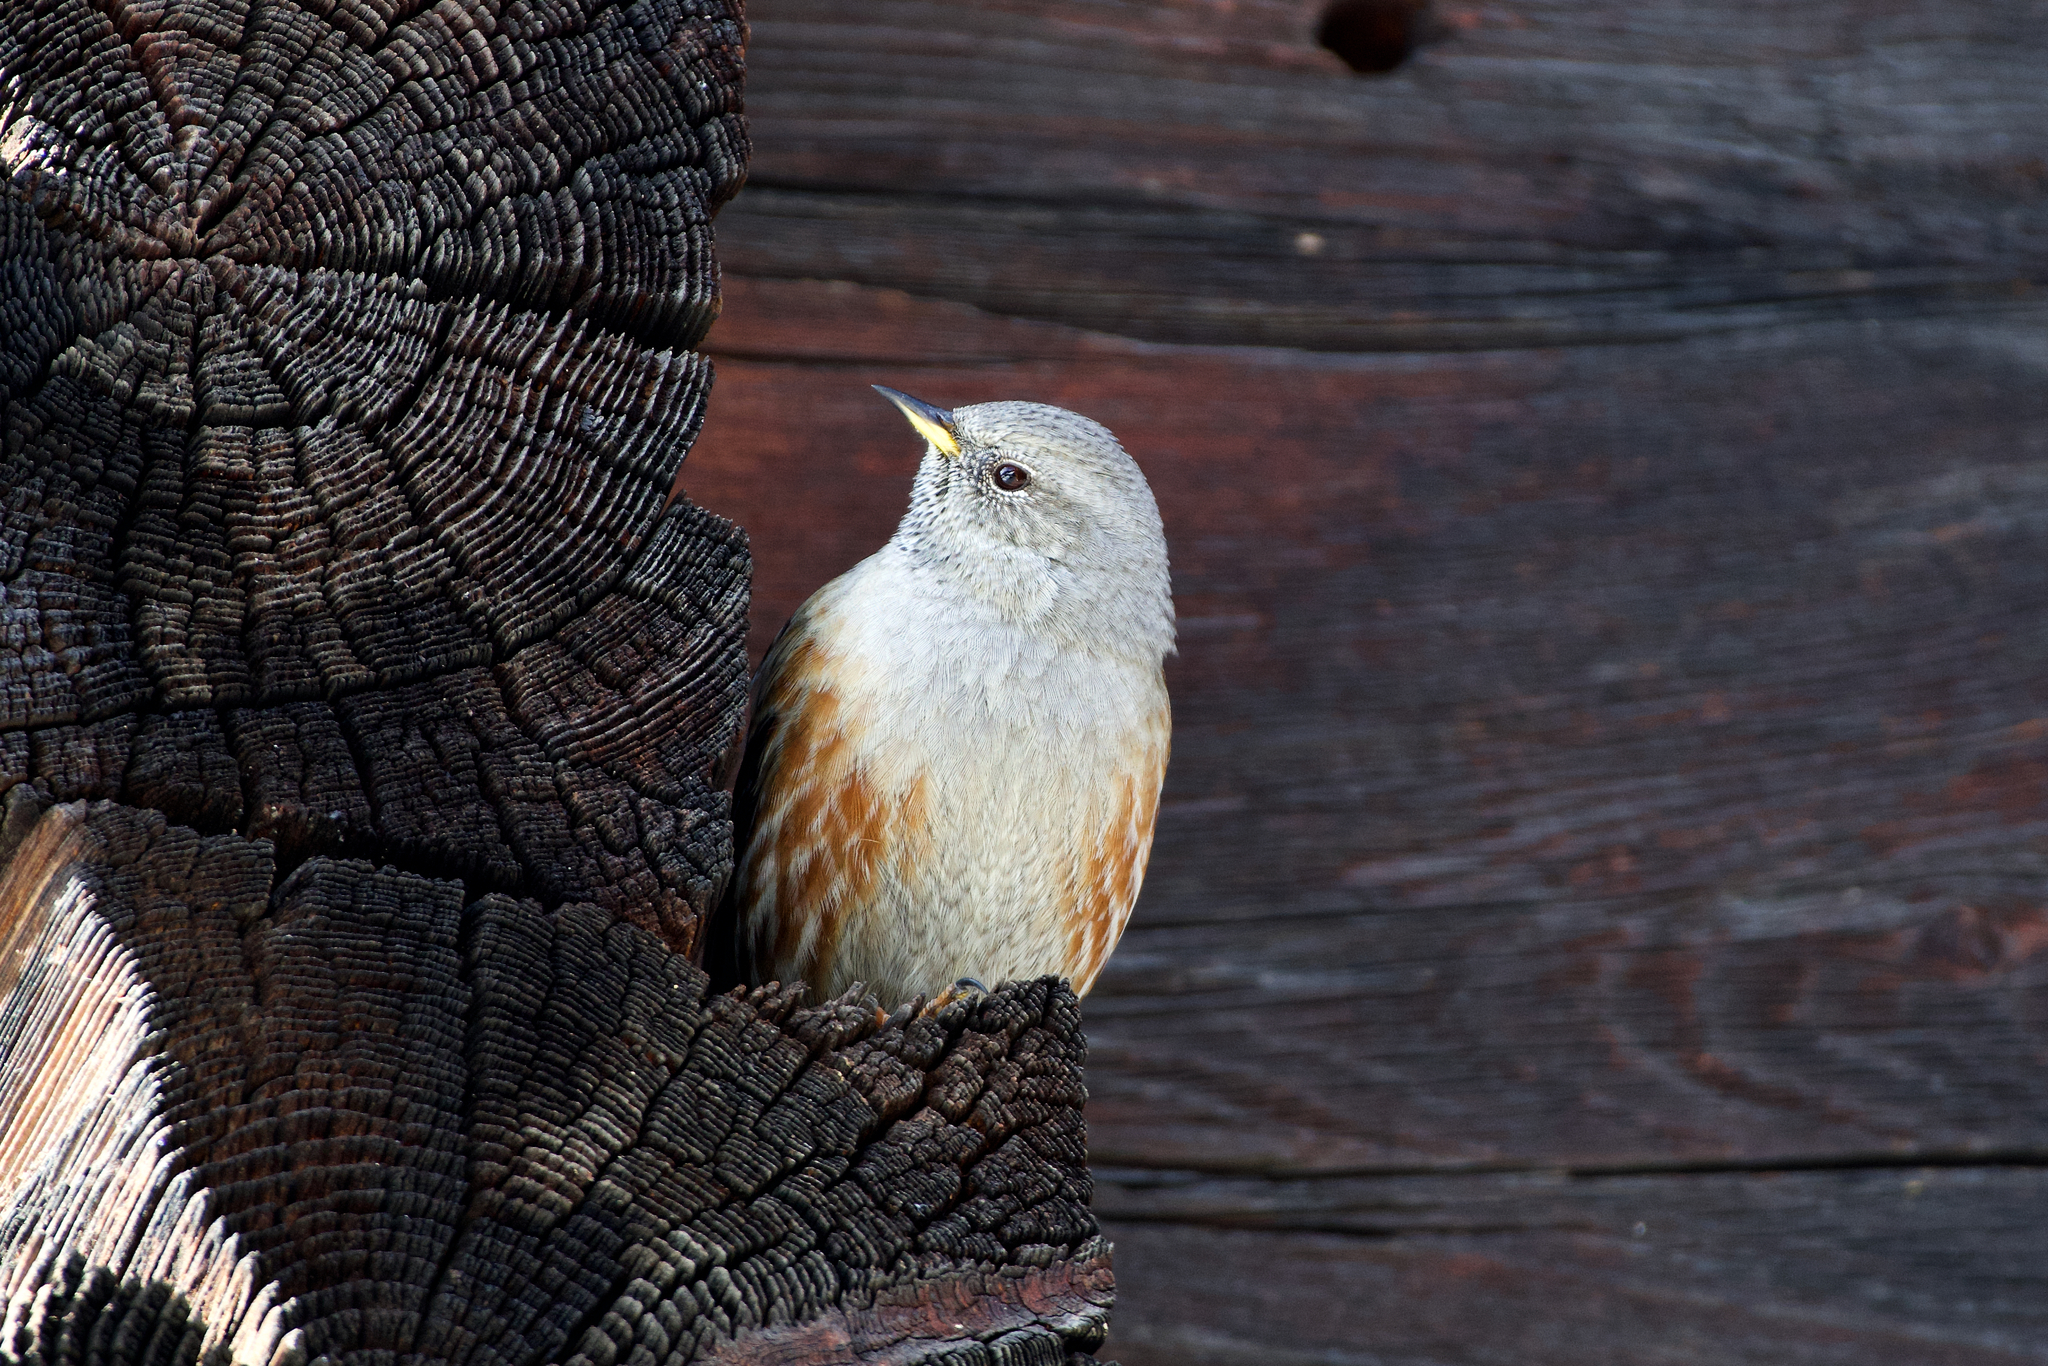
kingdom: Animalia
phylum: Chordata
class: Aves
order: Passeriformes
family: Prunellidae
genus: Prunella
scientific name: Prunella collaris
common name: Alpine accentor
